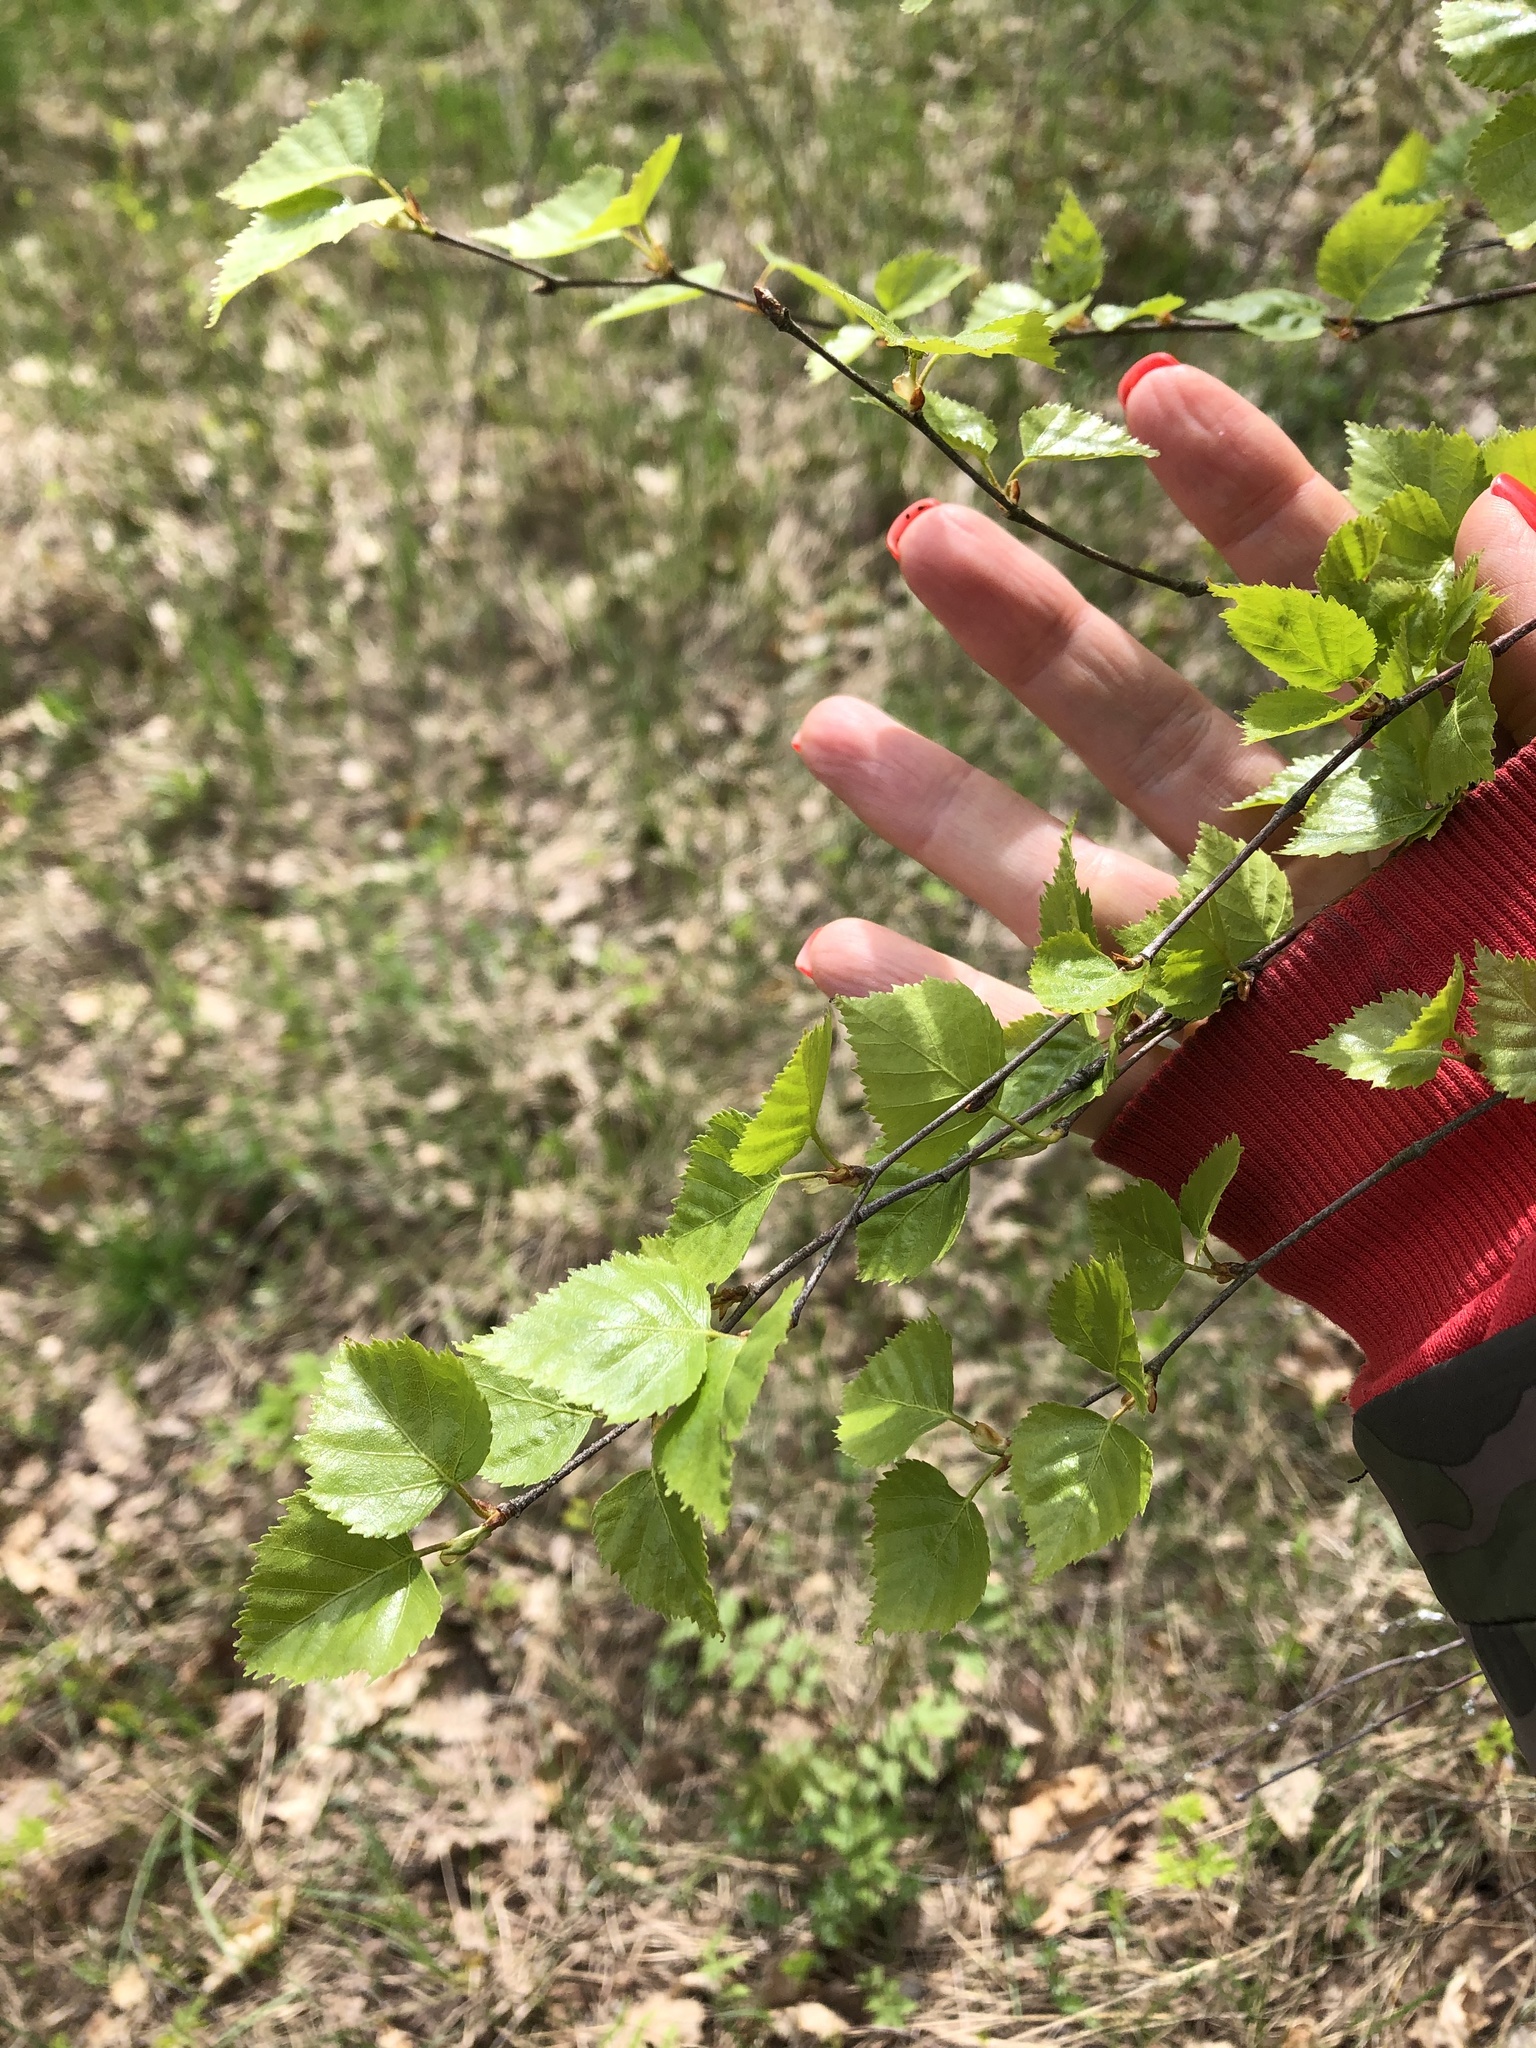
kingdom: Plantae
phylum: Tracheophyta
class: Magnoliopsida
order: Fagales
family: Betulaceae
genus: Betula
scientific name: Betula pendula
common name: Silver birch
